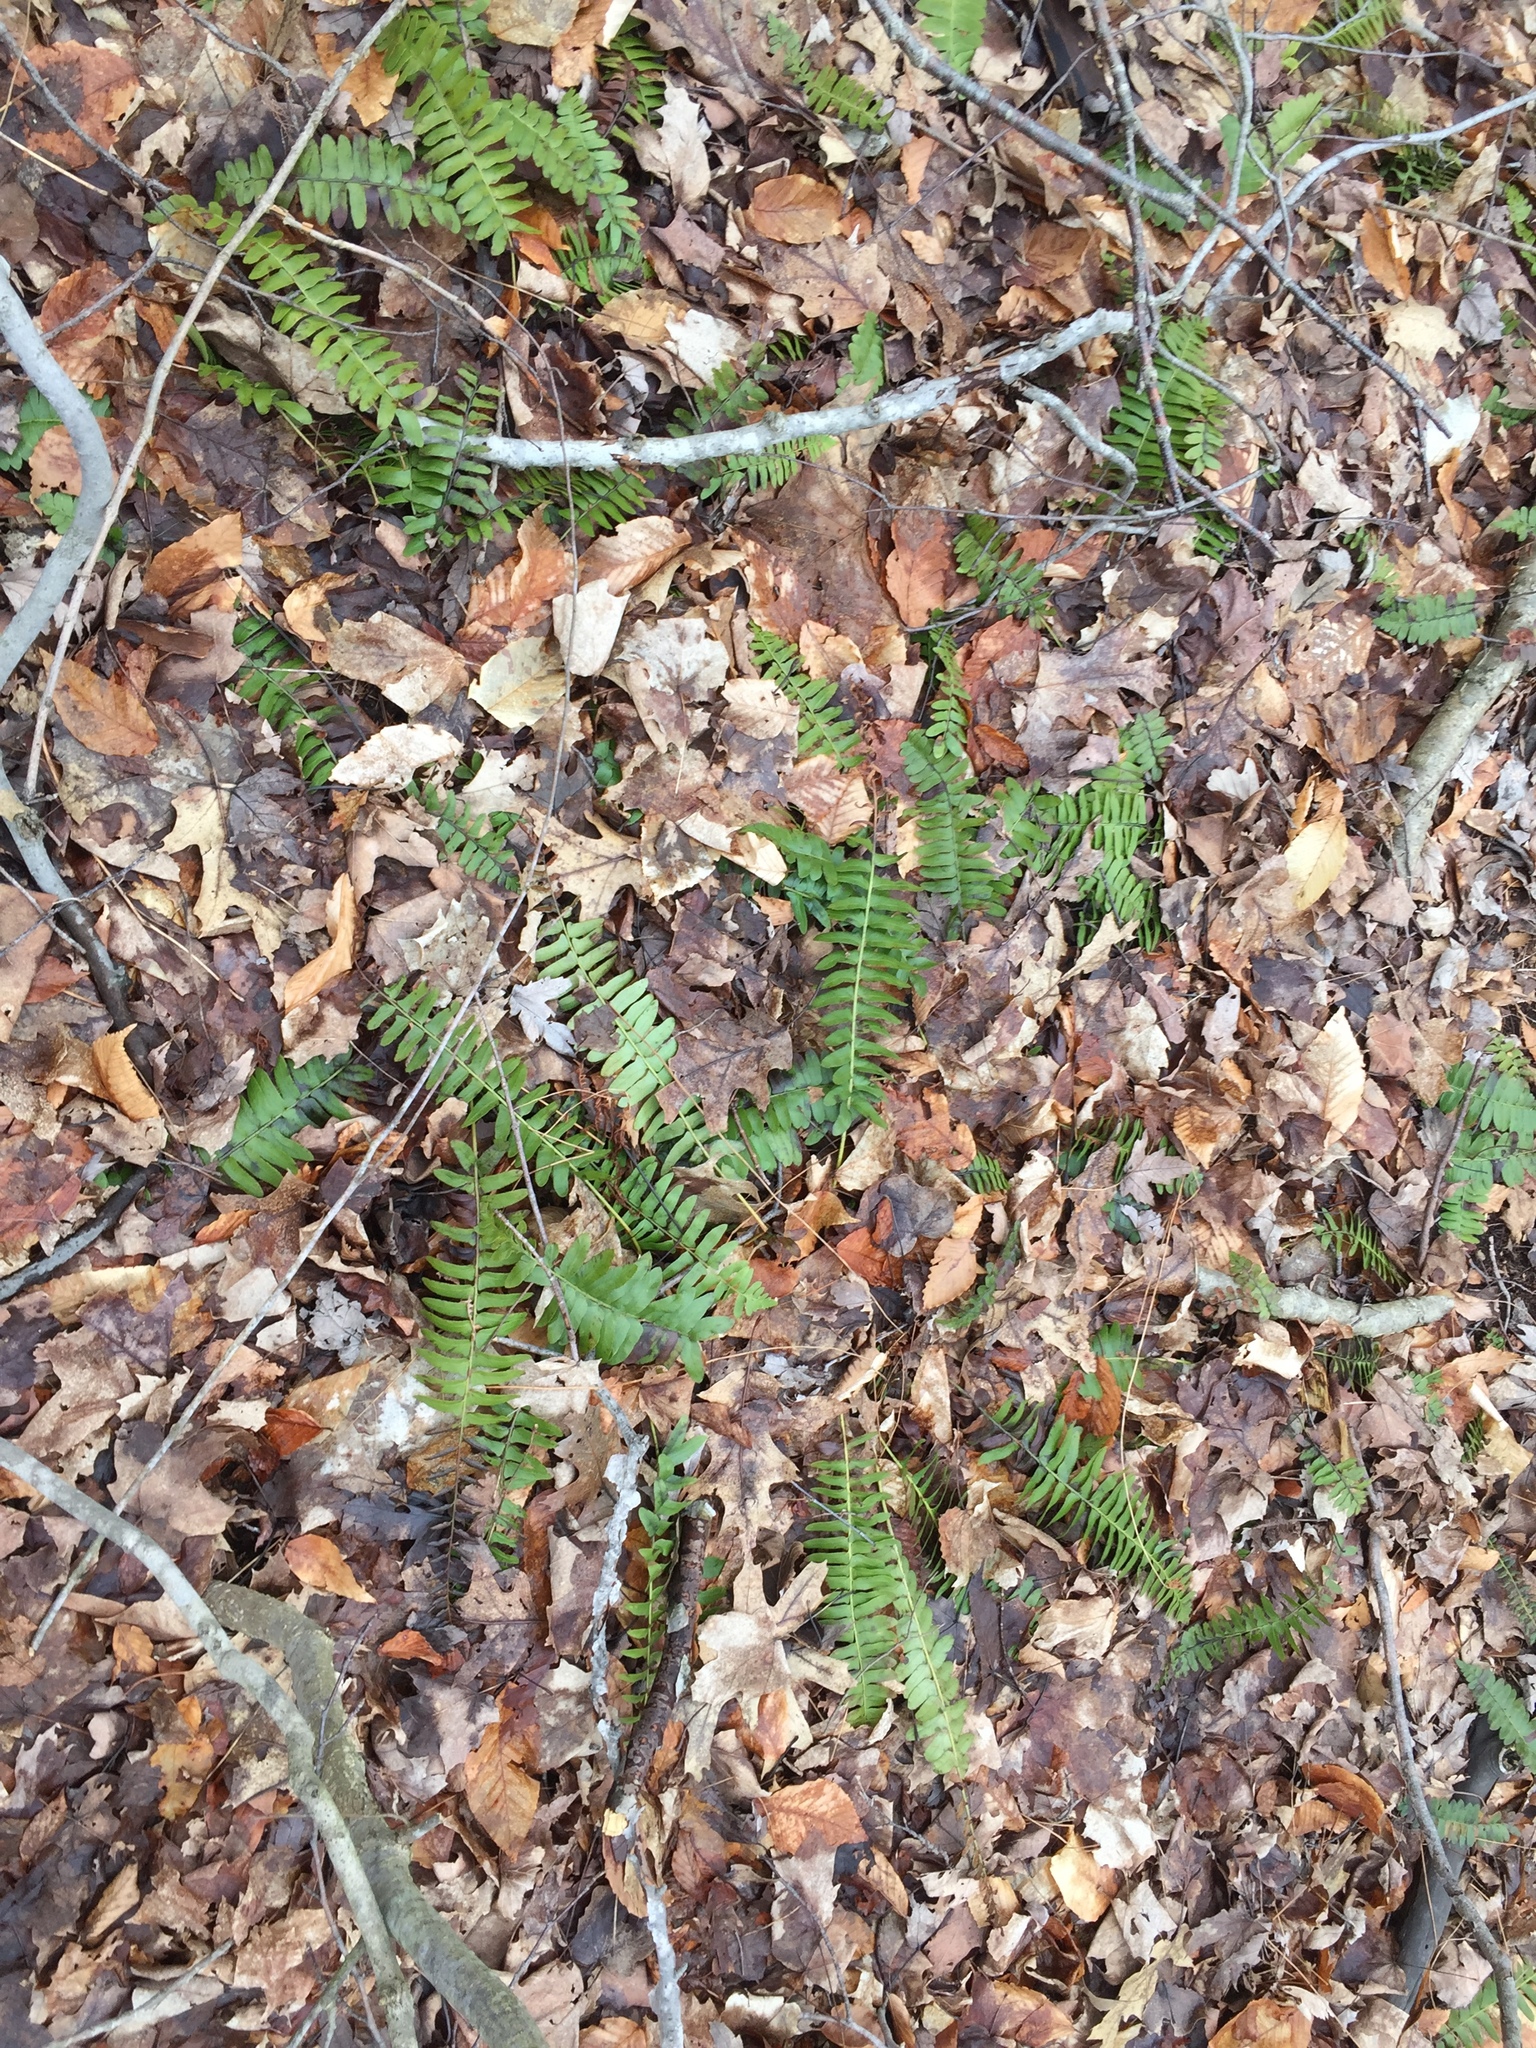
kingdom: Plantae
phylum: Tracheophyta
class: Polypodiopsida
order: Polypodiales
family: Dryopteridaceae
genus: Polystichum
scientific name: Polystichum acrostichoides
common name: Christmas fern
